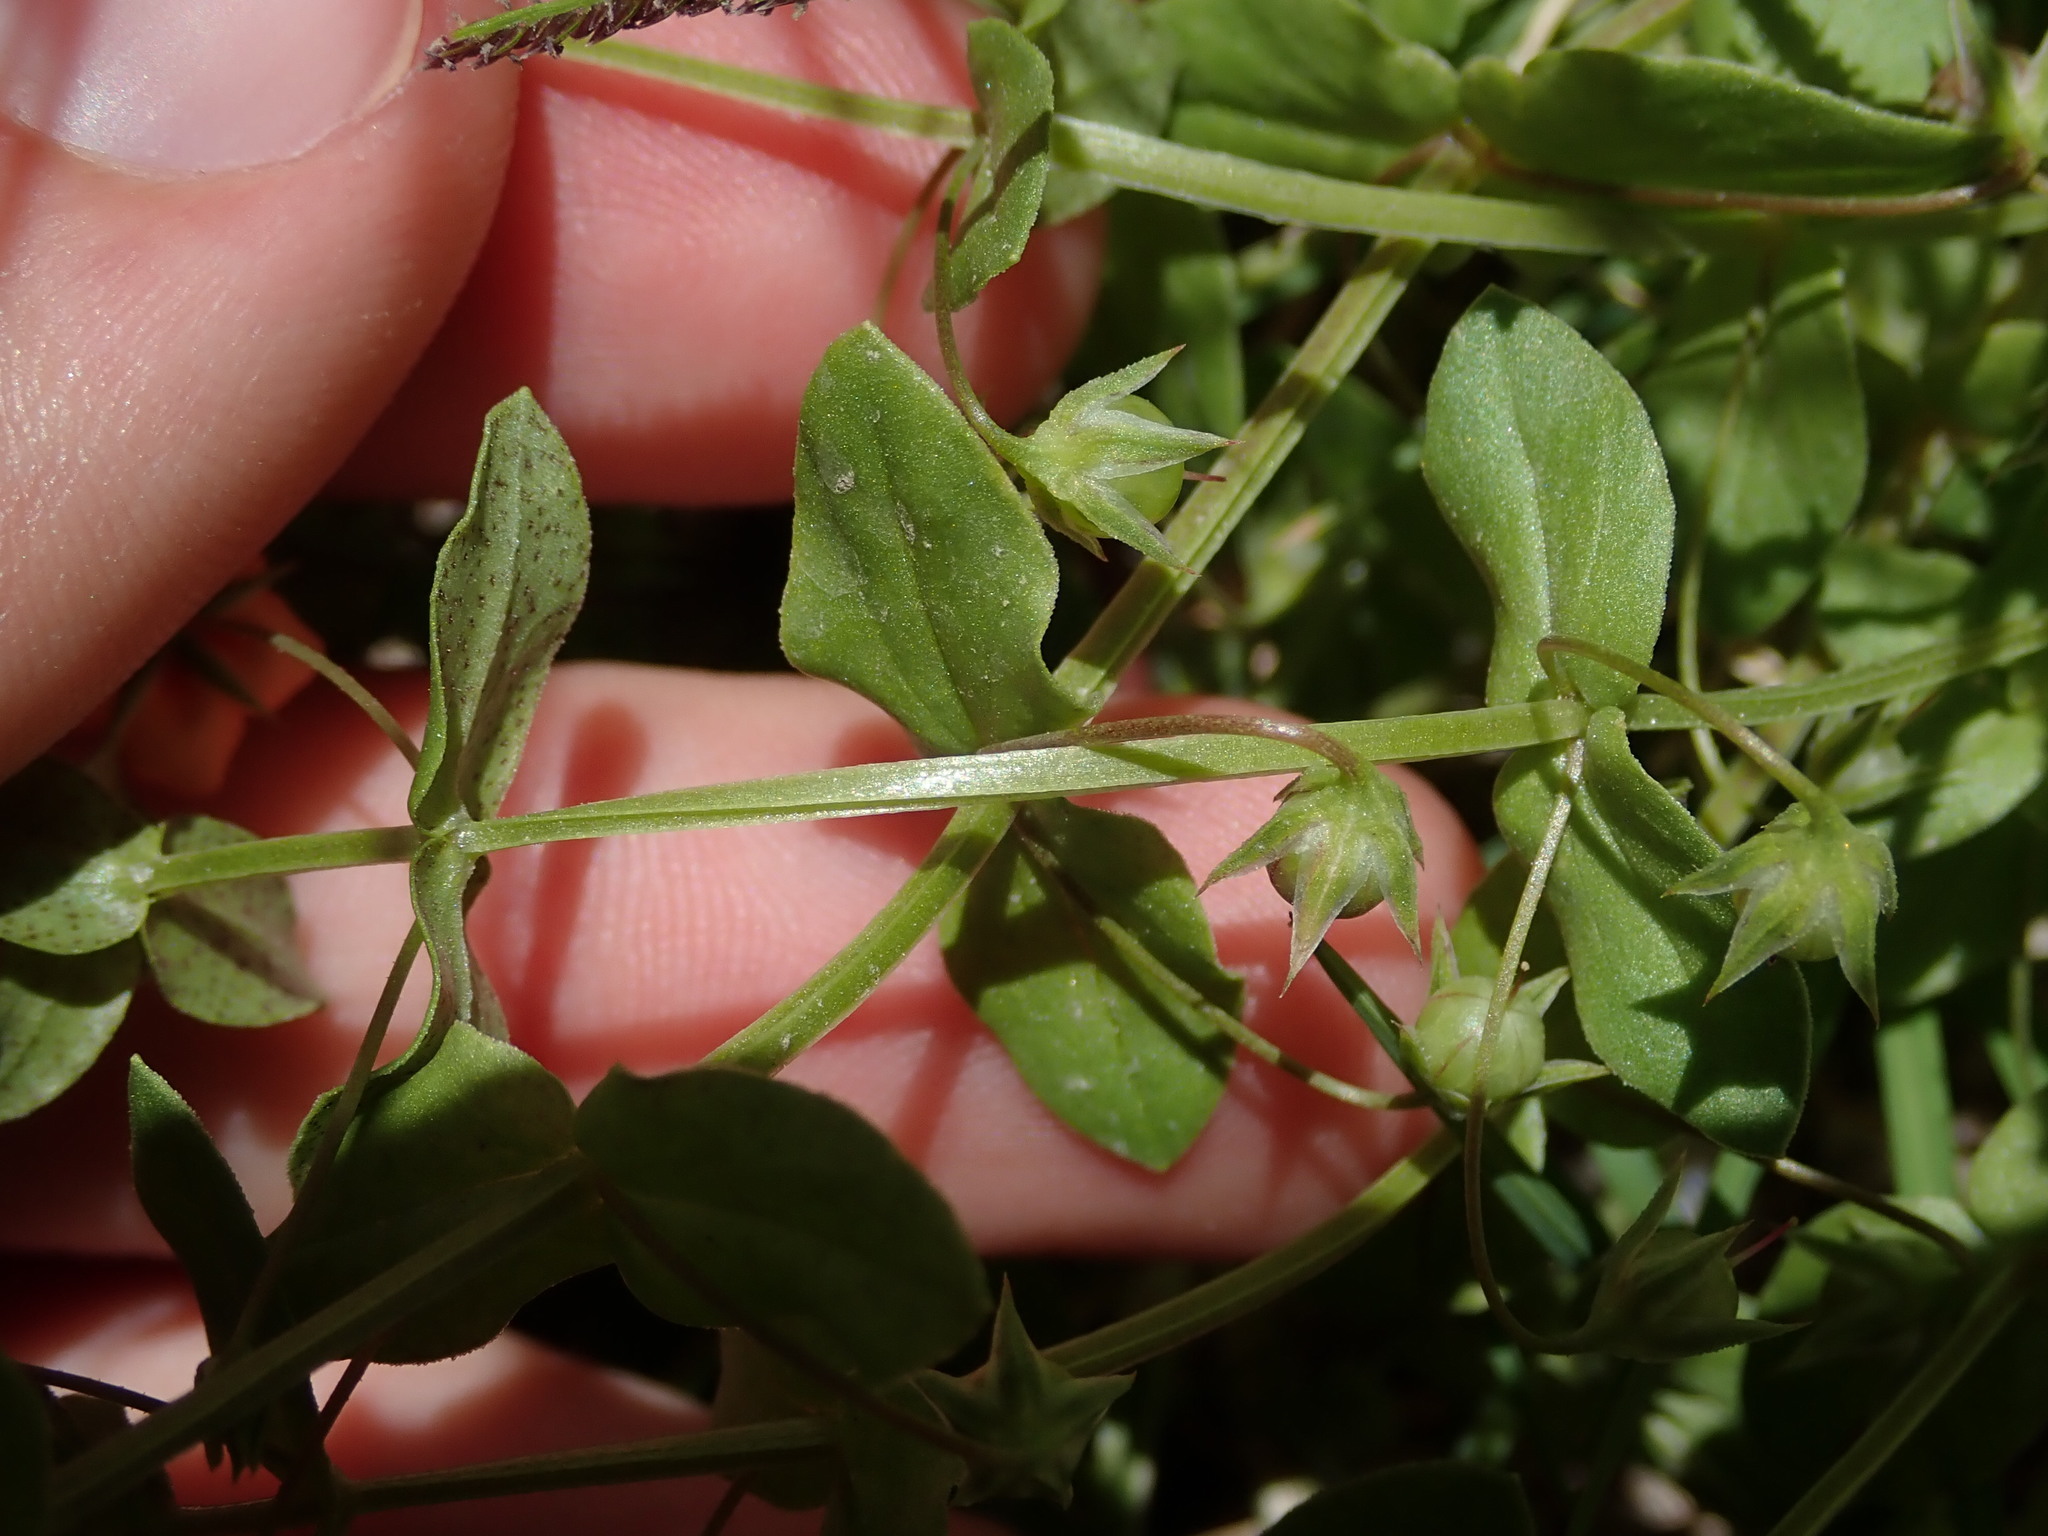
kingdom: Plantae
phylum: Tracheophyta
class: Magnoliopsida
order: Ericales
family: Primulaceae
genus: Lysimachia
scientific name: Lysimachia arvensis
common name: Scarlet pimpernel
